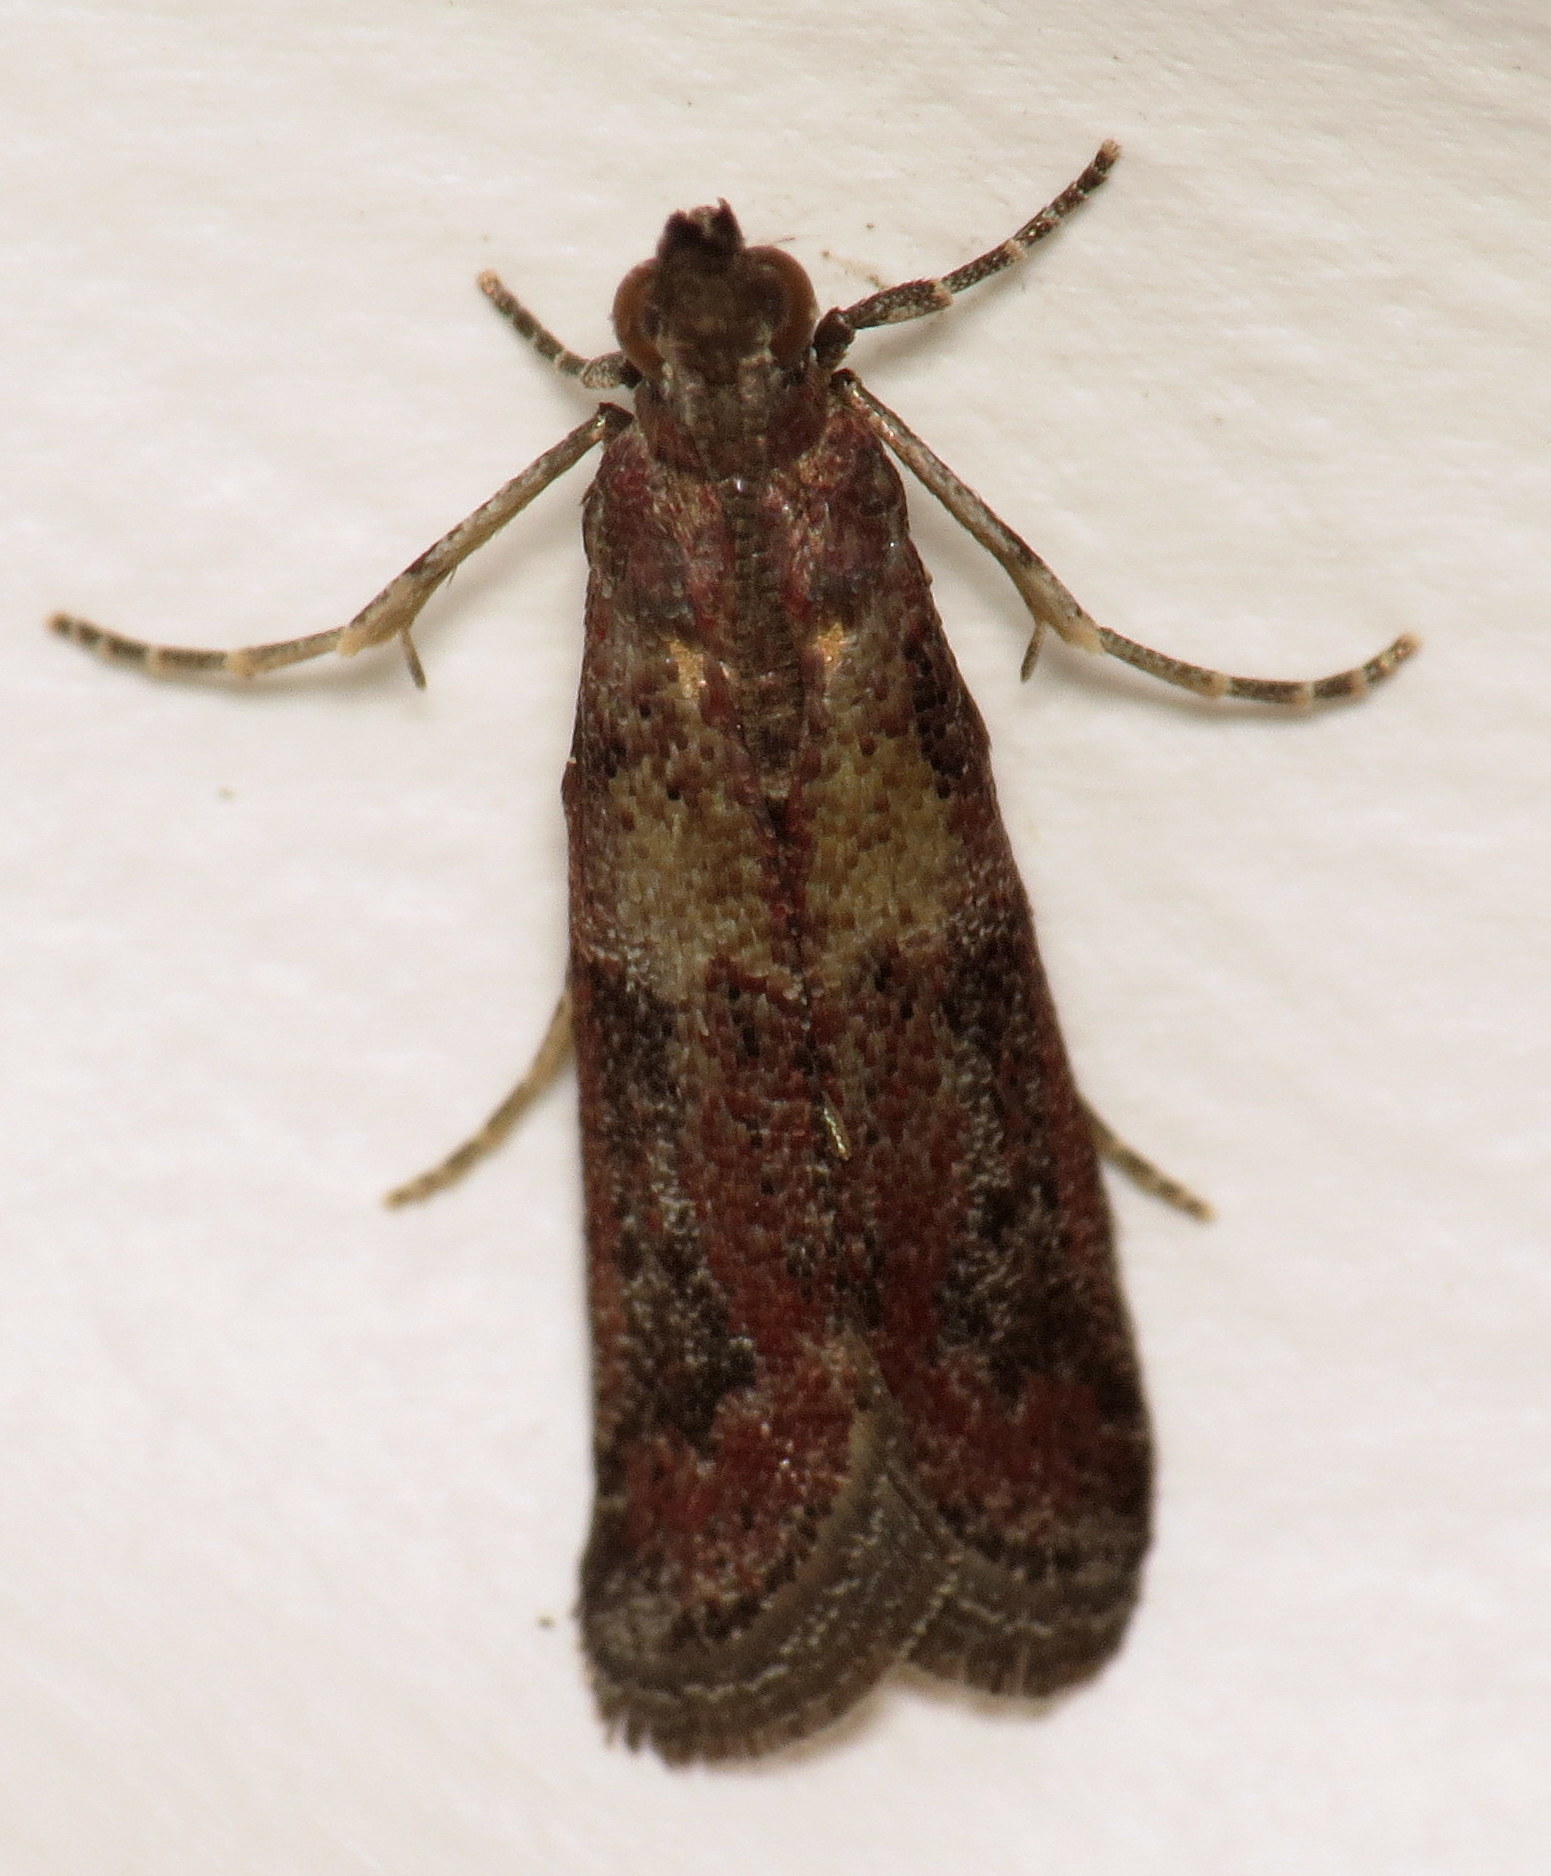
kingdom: Animalia
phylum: Arthropoda
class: Insecta
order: Lepidoptera
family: Pyralidae
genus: Ephestiodes
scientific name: Ephestiodes infimella
